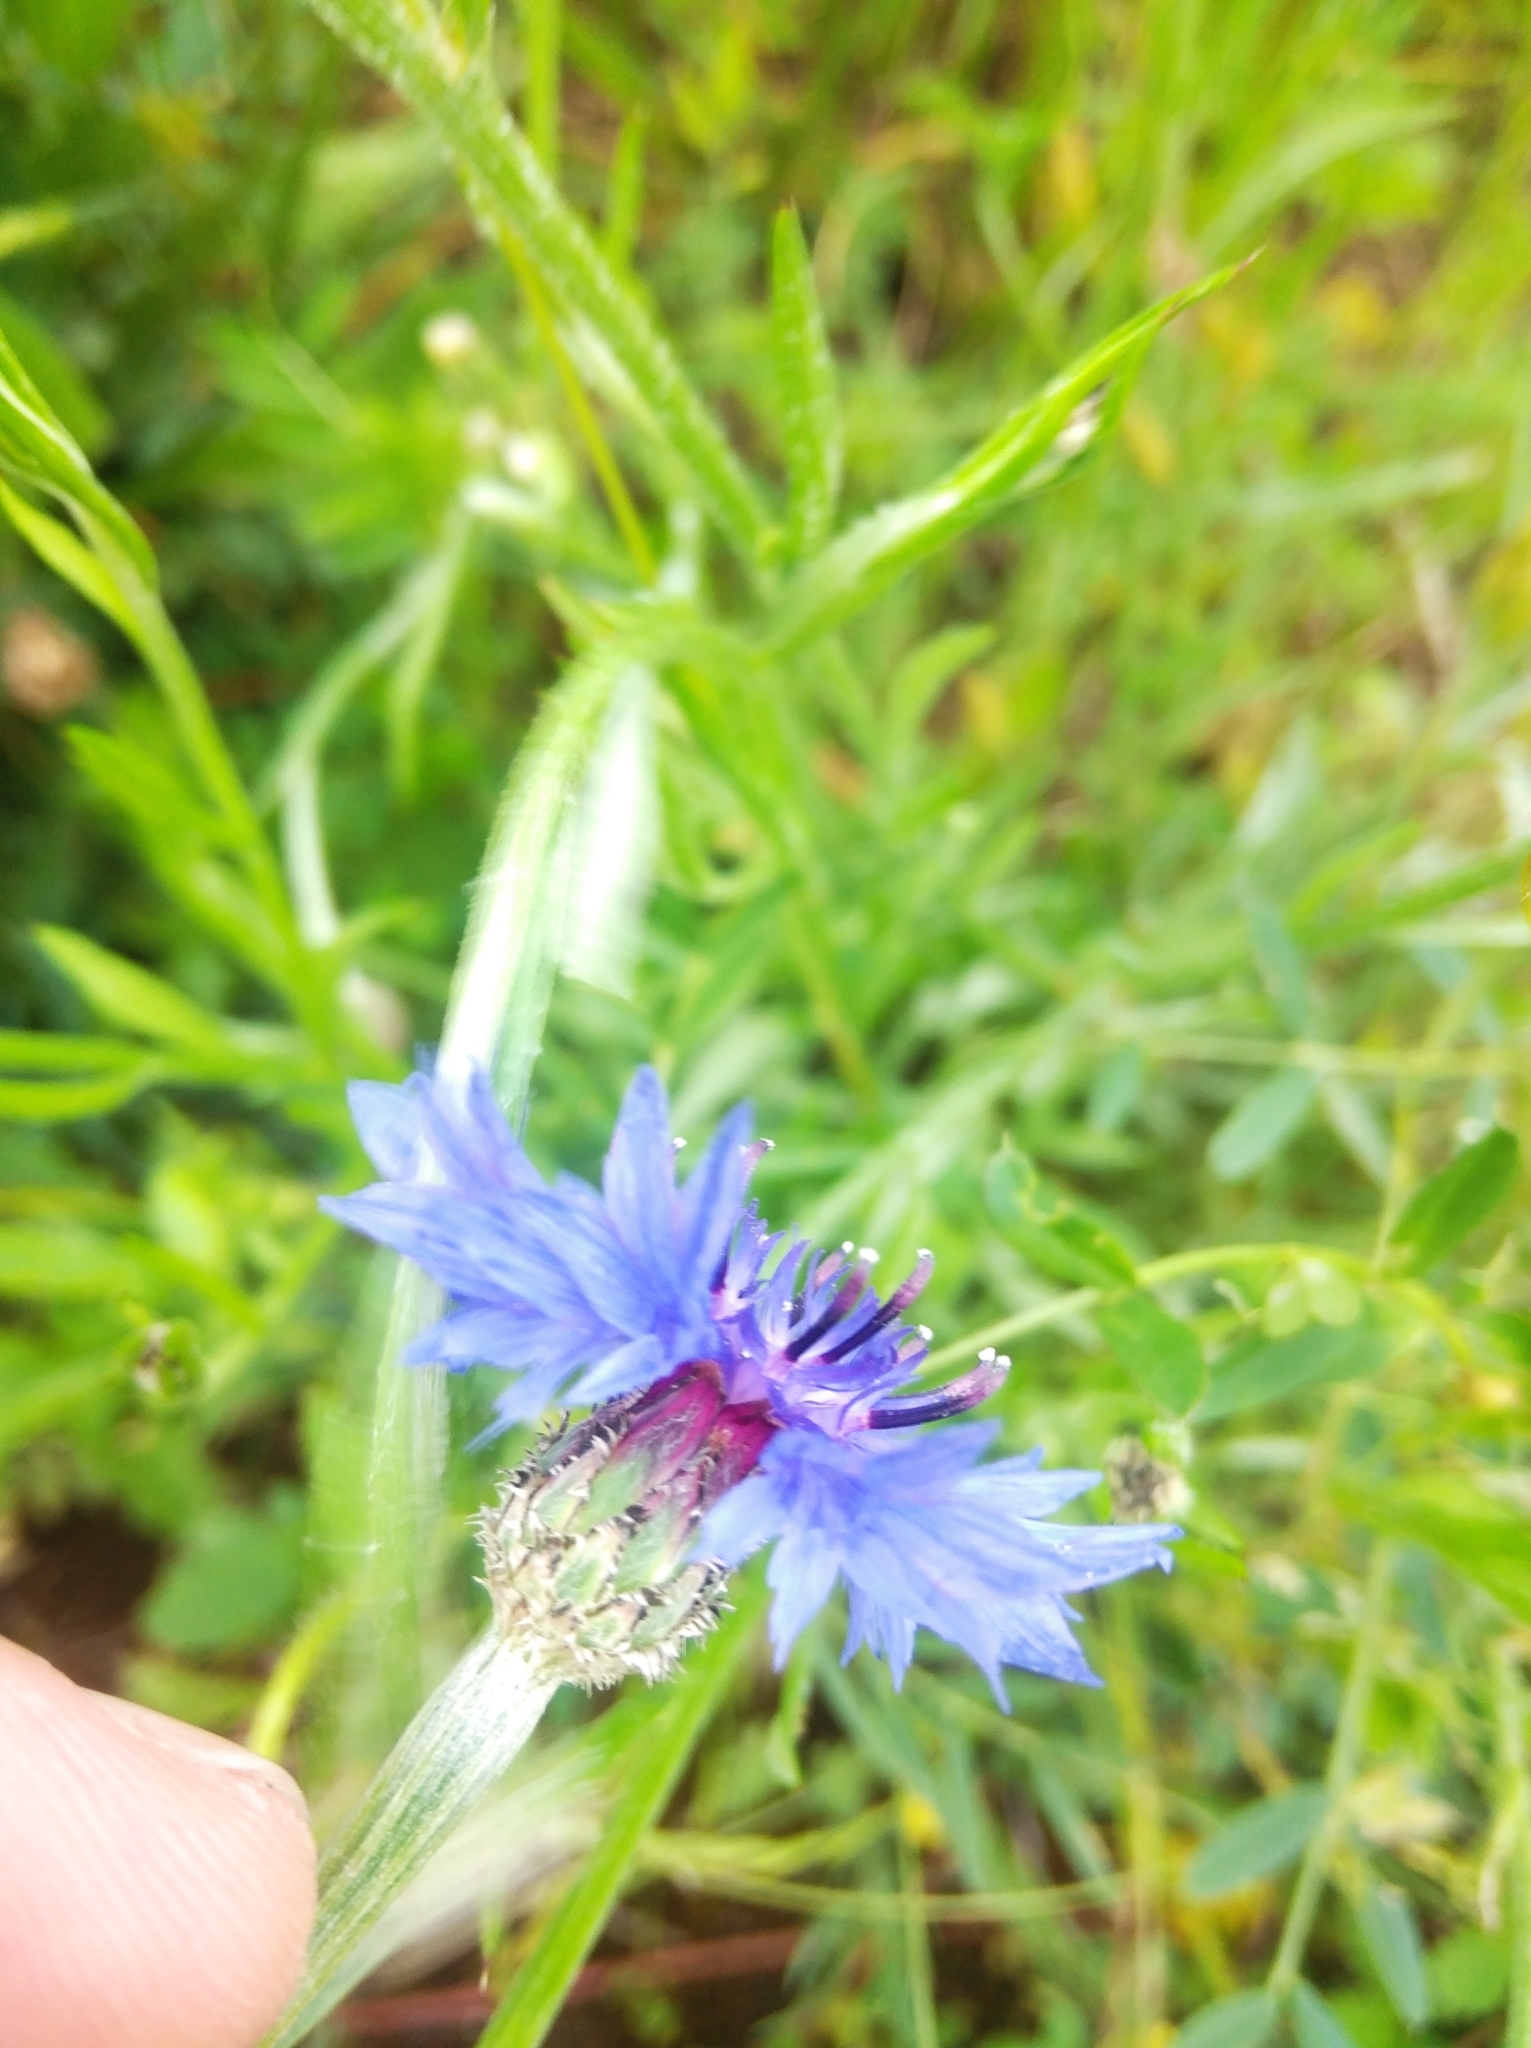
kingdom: Plantae
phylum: Tracheophyta
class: Magnoliopsida
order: Asterales
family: Asteraceae
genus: Centaurea
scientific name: Centaurea cyanus
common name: Cornflower
